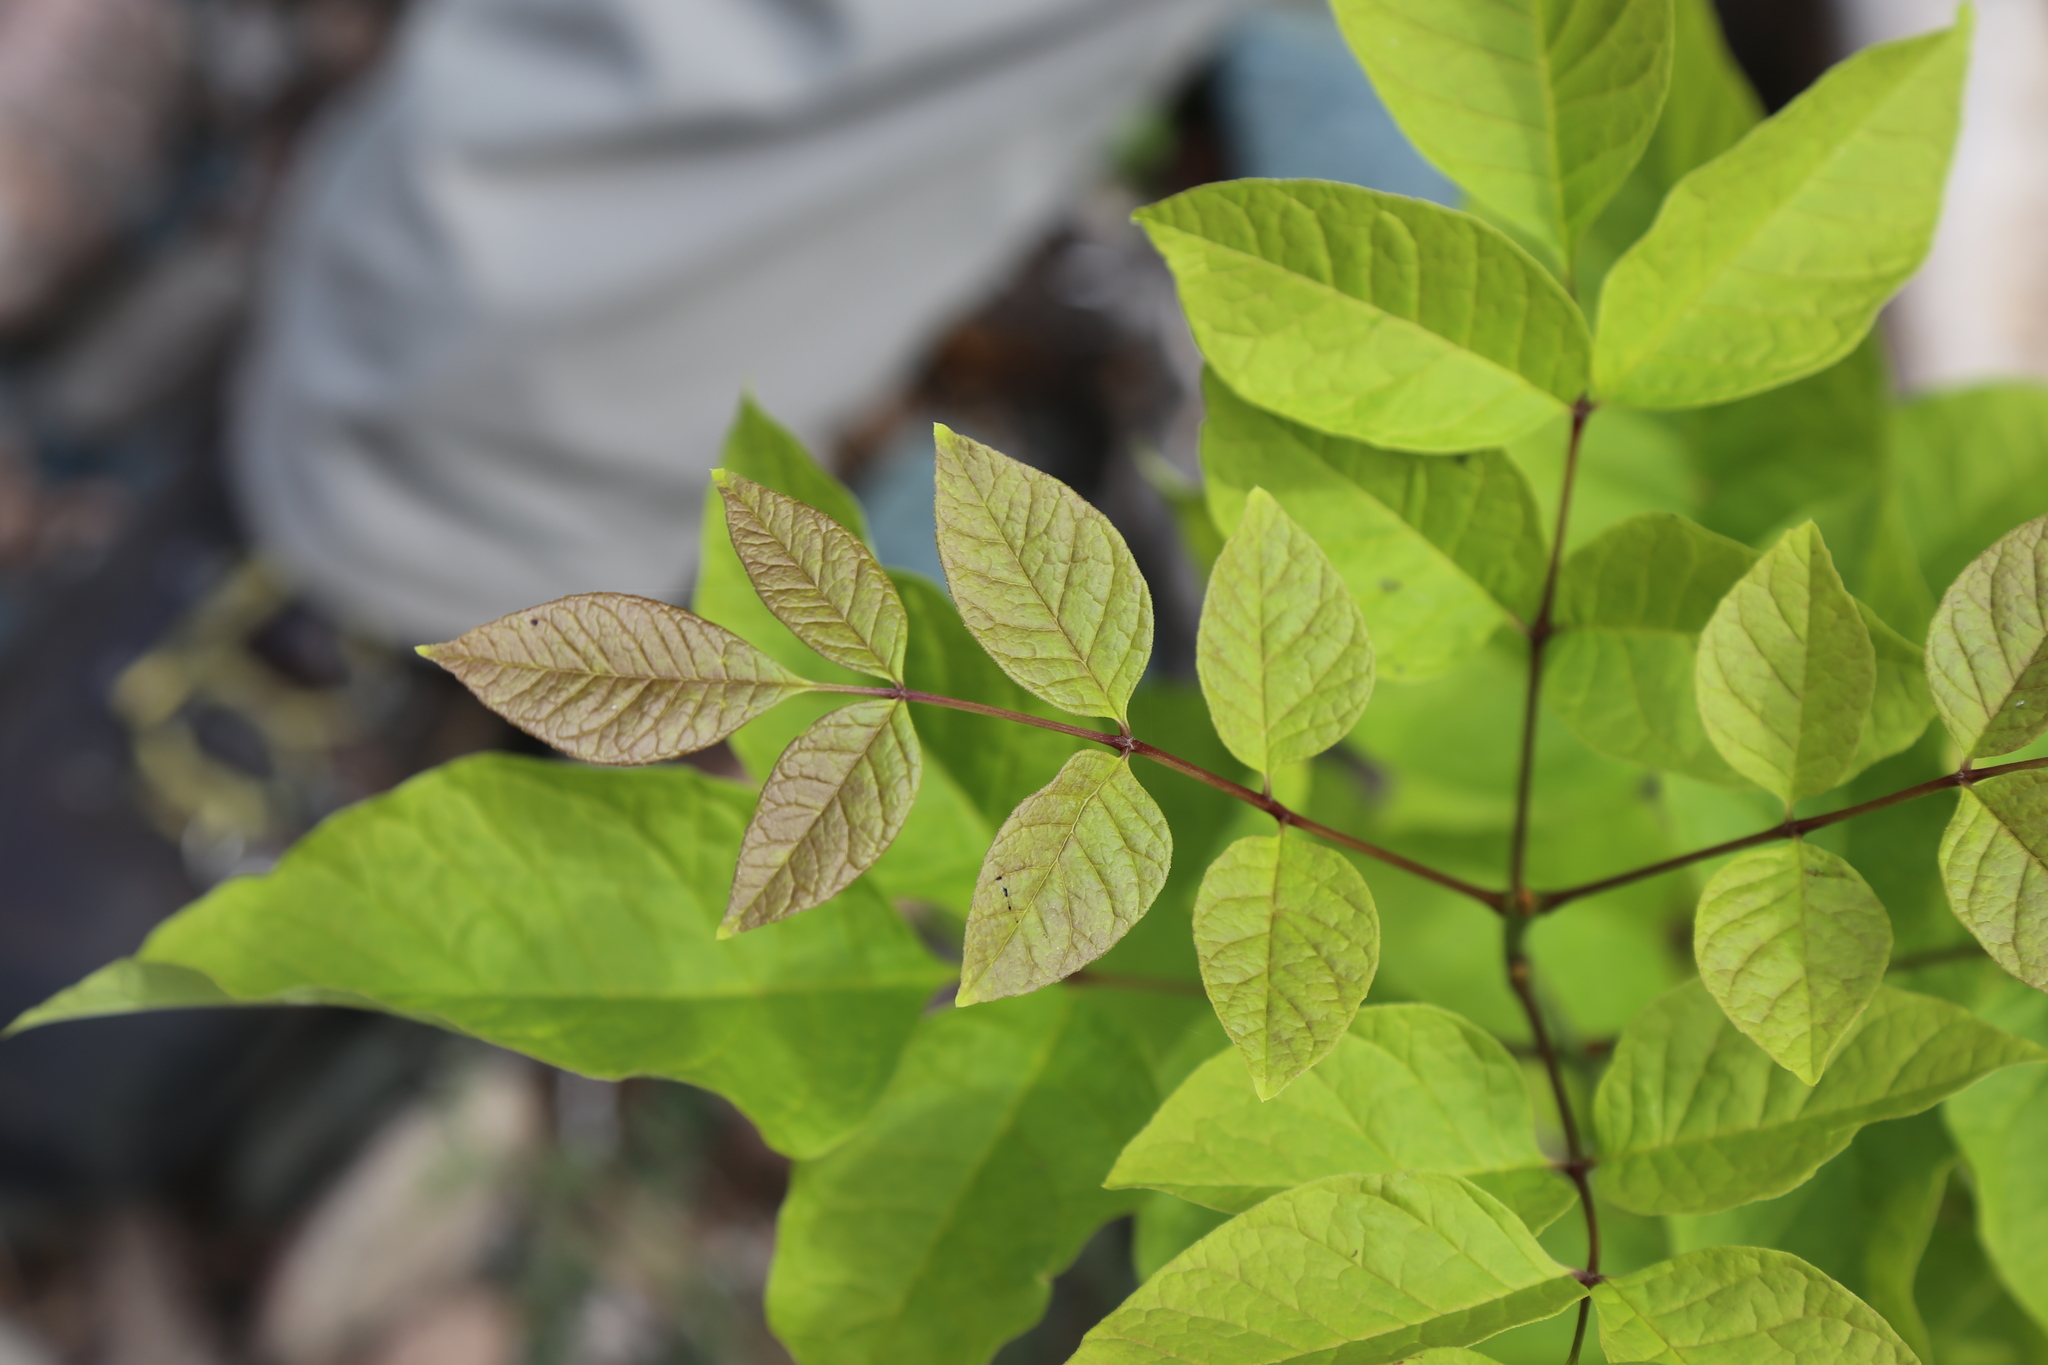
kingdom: Plantae
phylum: Tracheophyta
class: Magnoliopsida
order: Lamiales
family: Oleaceae
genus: Fraxinus
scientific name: Fraxinus americana
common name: White ash
